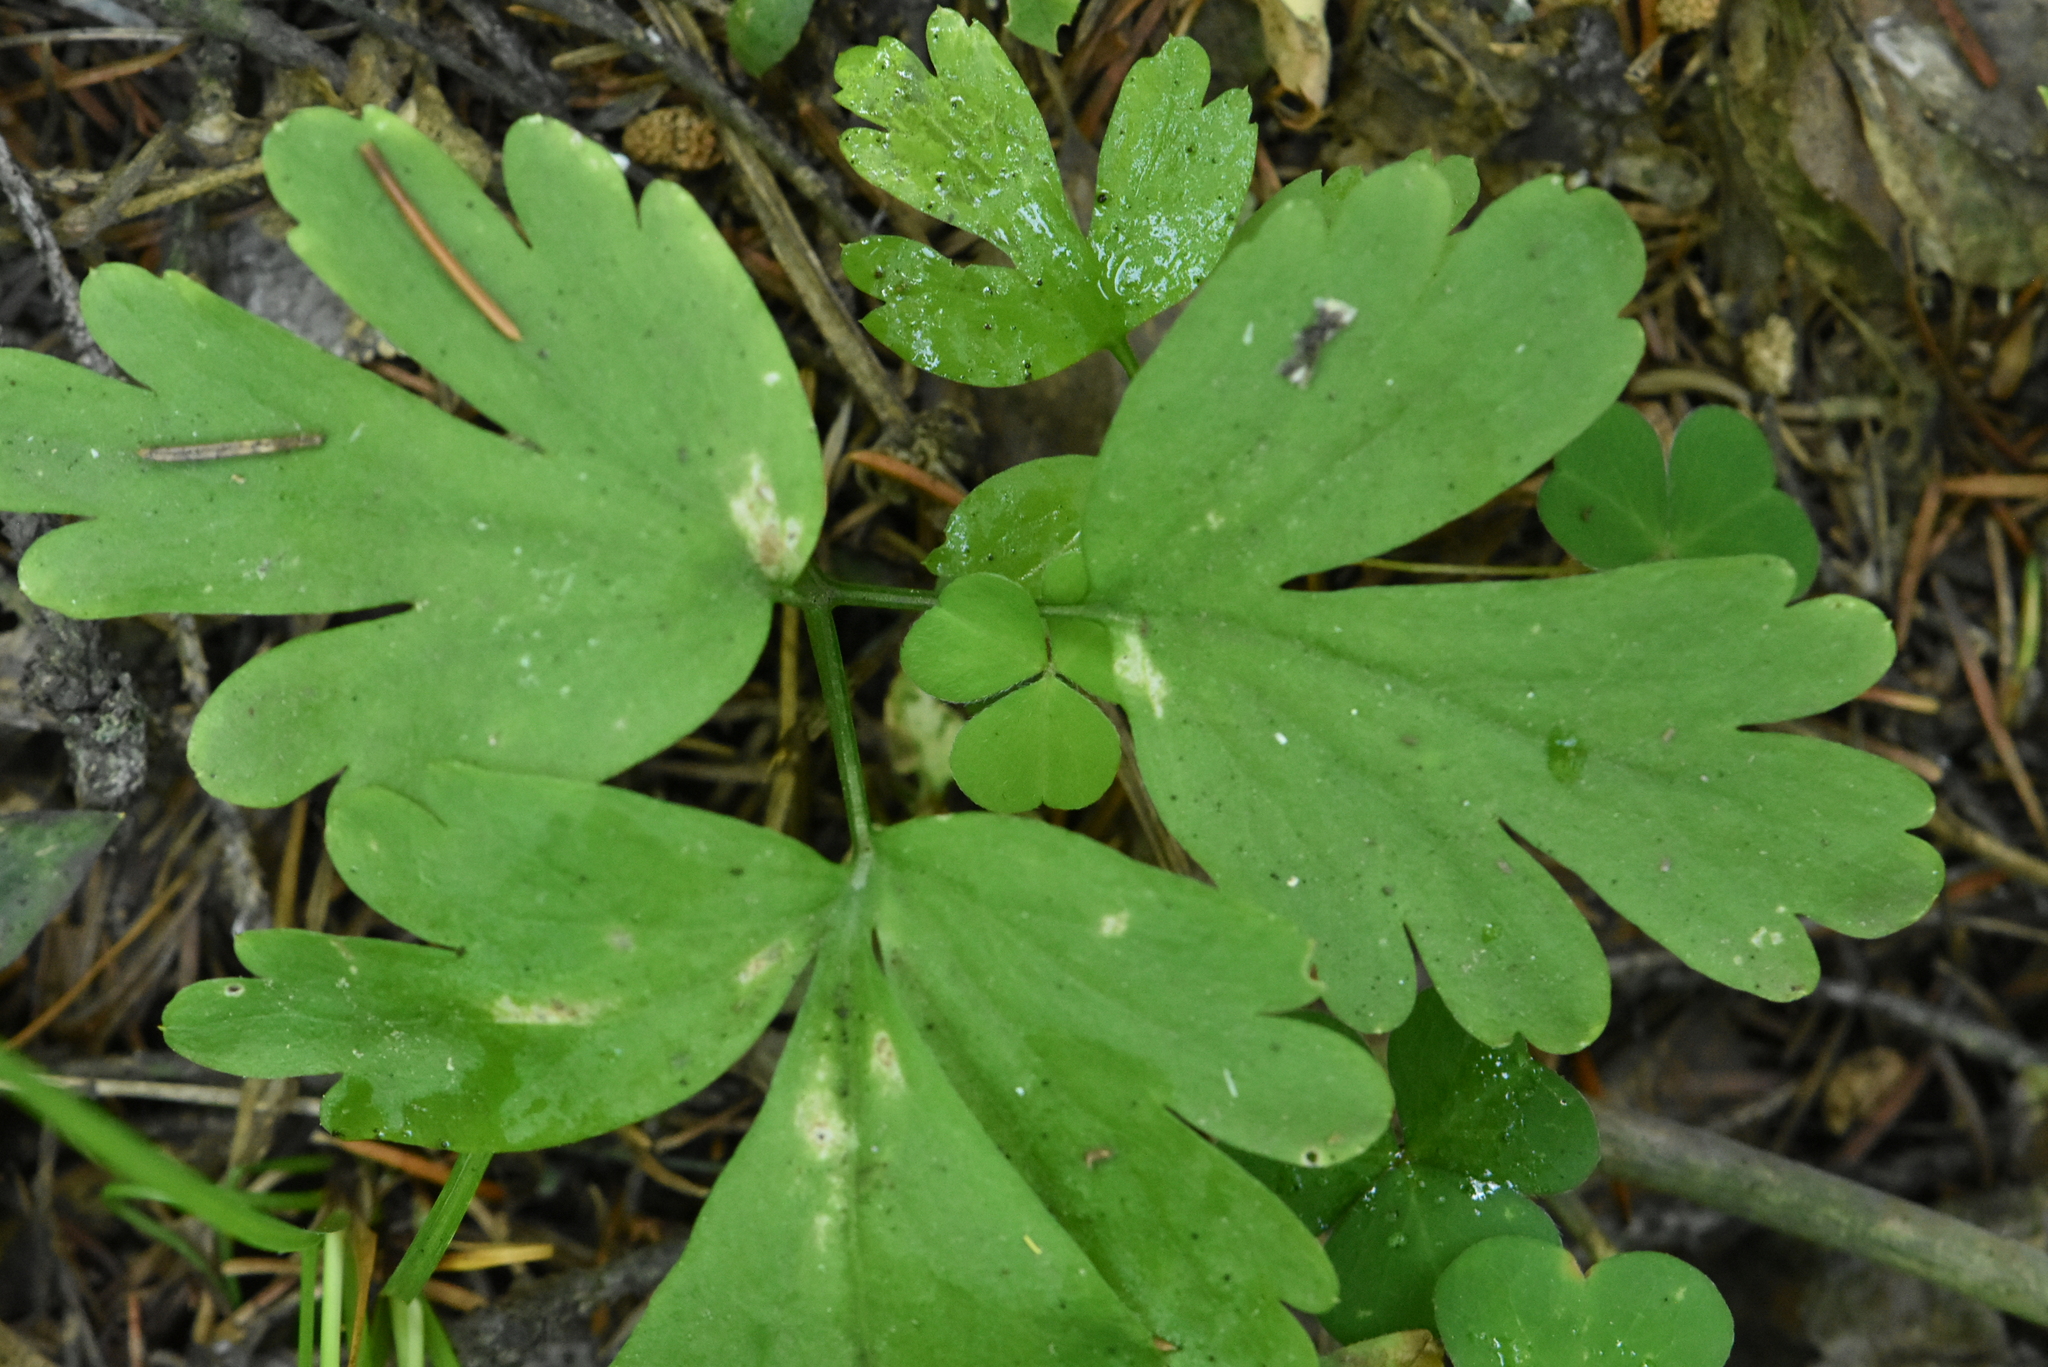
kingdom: Plantae
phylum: Tracheophyta
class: Magnoliopsida
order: Dipsacales
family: Viburnaceae
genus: Adoxa
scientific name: Adoxa moschatellina
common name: Moschatel
